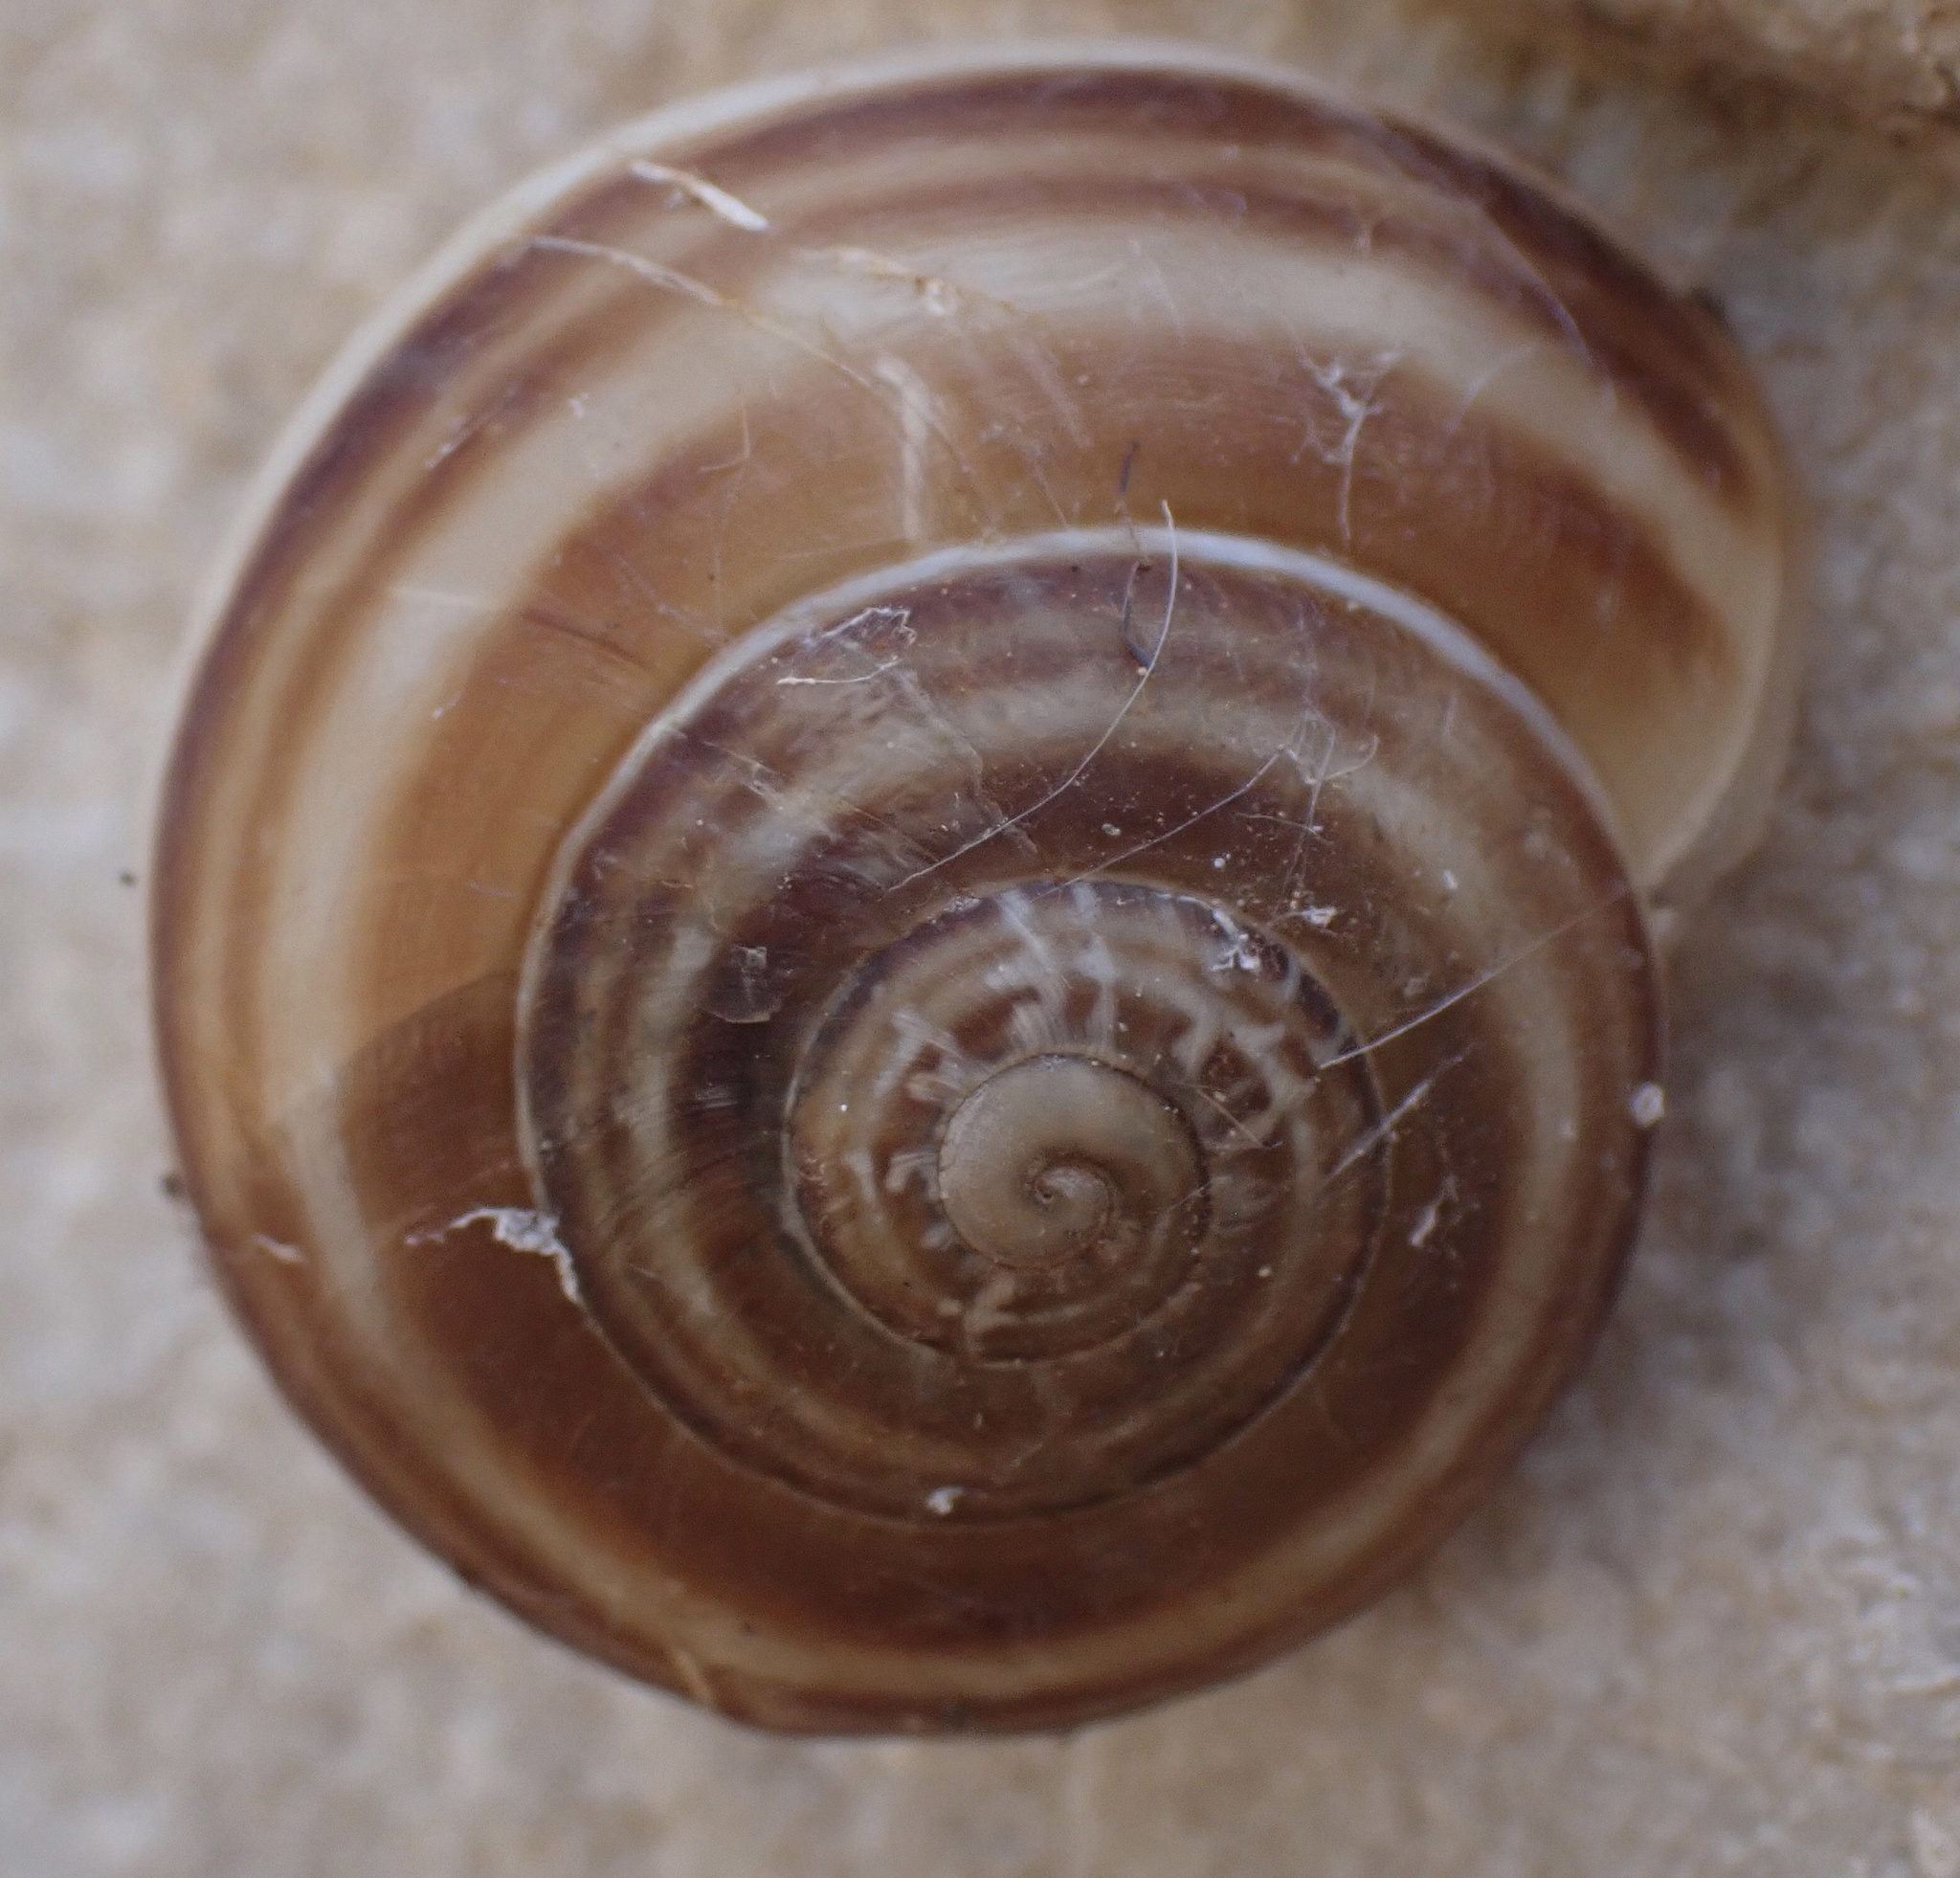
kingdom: Animalia
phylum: Mollusca
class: Gastropoda
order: Stylommatophora
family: Helicidae
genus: Eobania
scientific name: Eobania vermiculata
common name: Chocolateband snail
